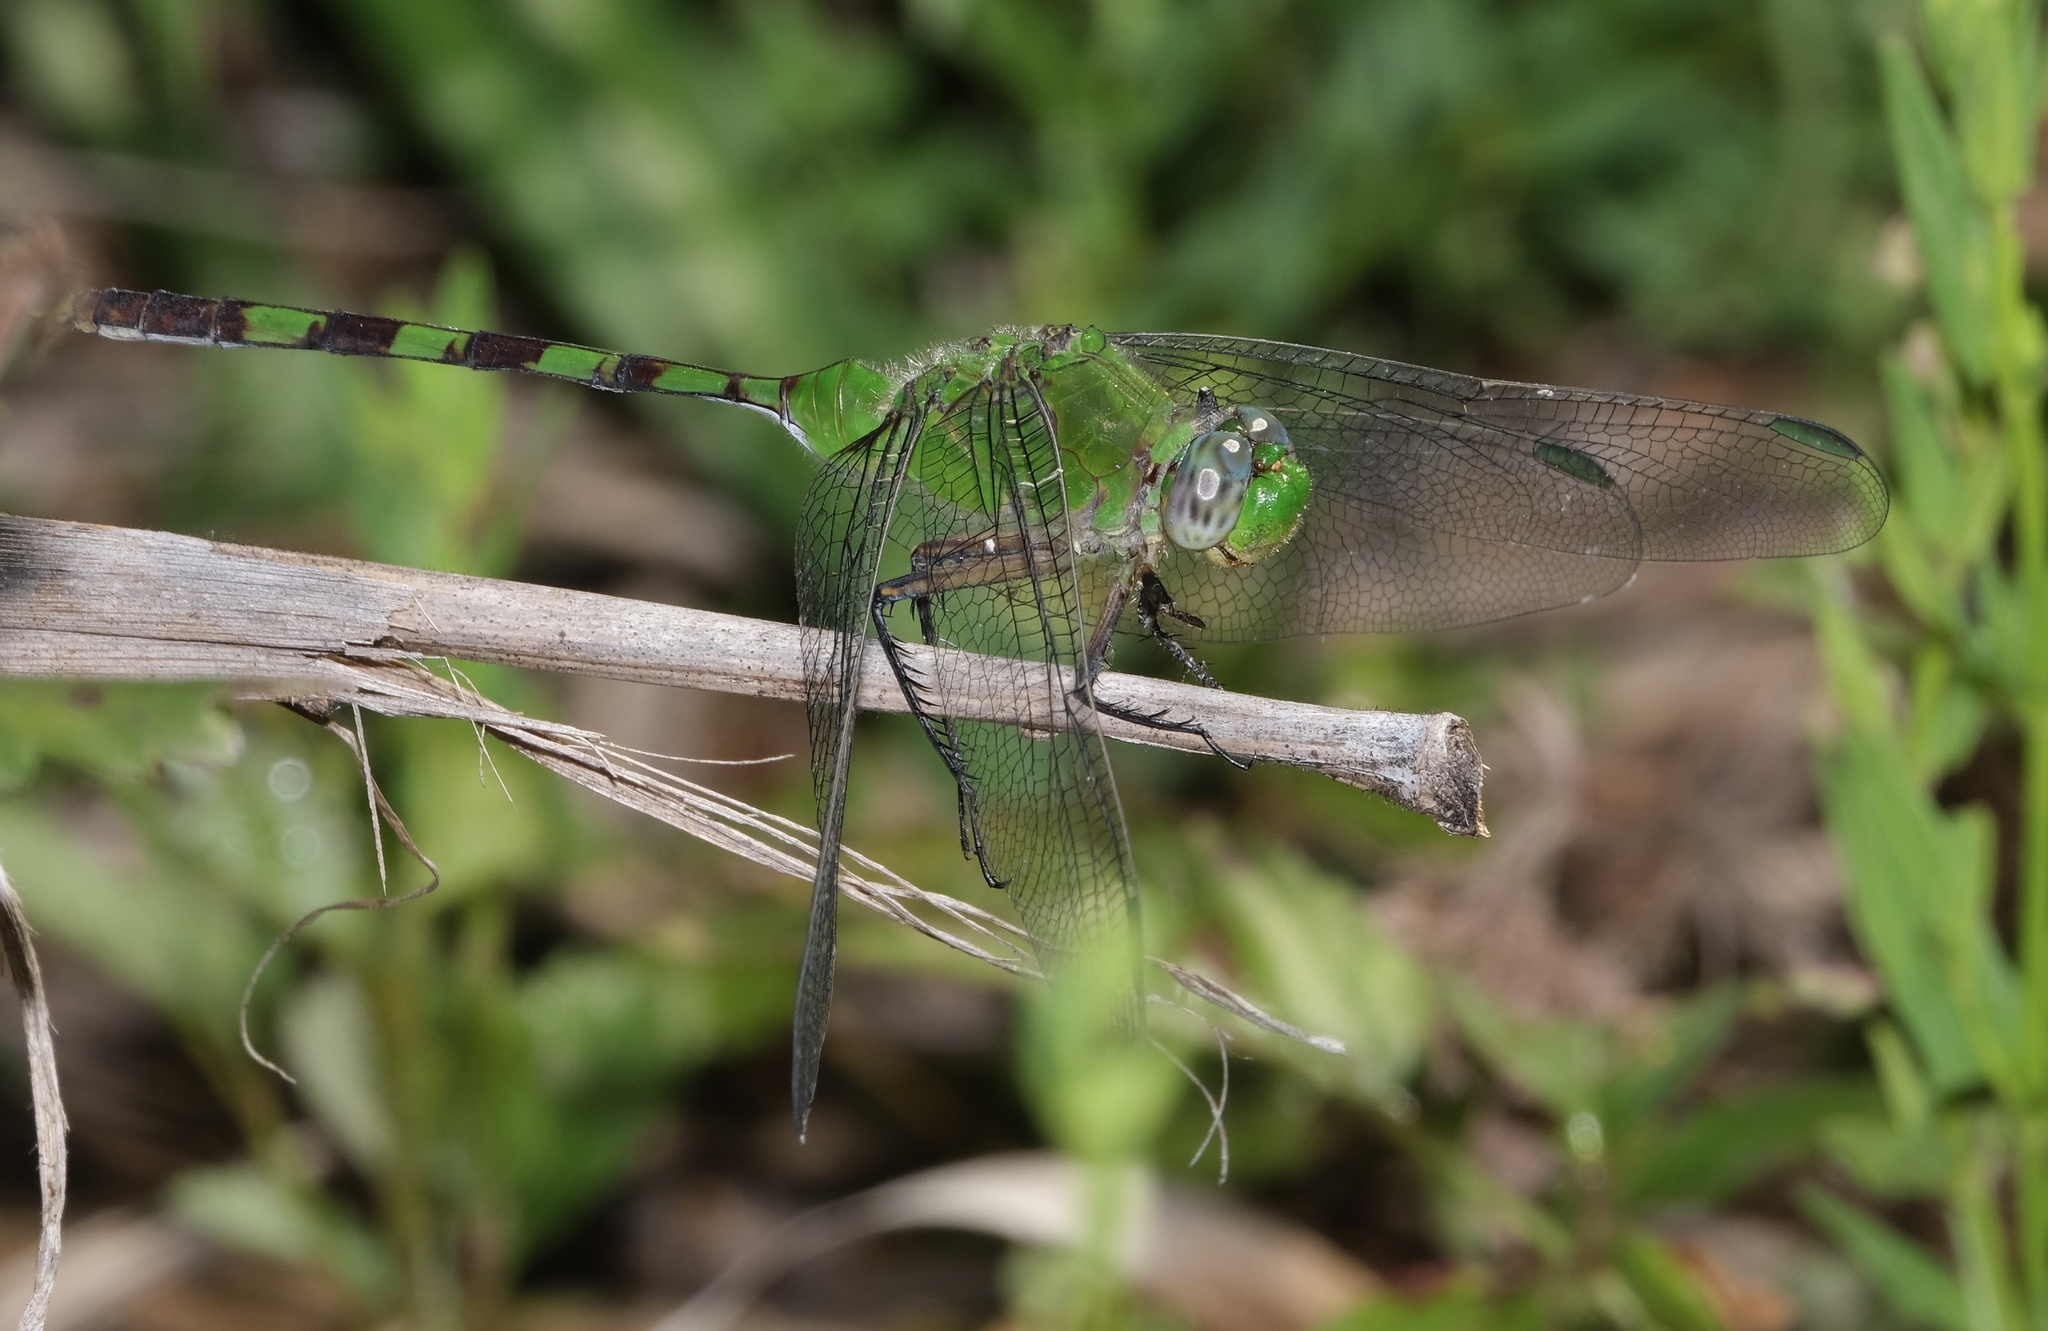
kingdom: Animalia
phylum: Arthropoda
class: Insecta
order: Odonata
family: Libellulidae
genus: Erythemis
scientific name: Erythemis vesiculosa
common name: Great pondhawk
